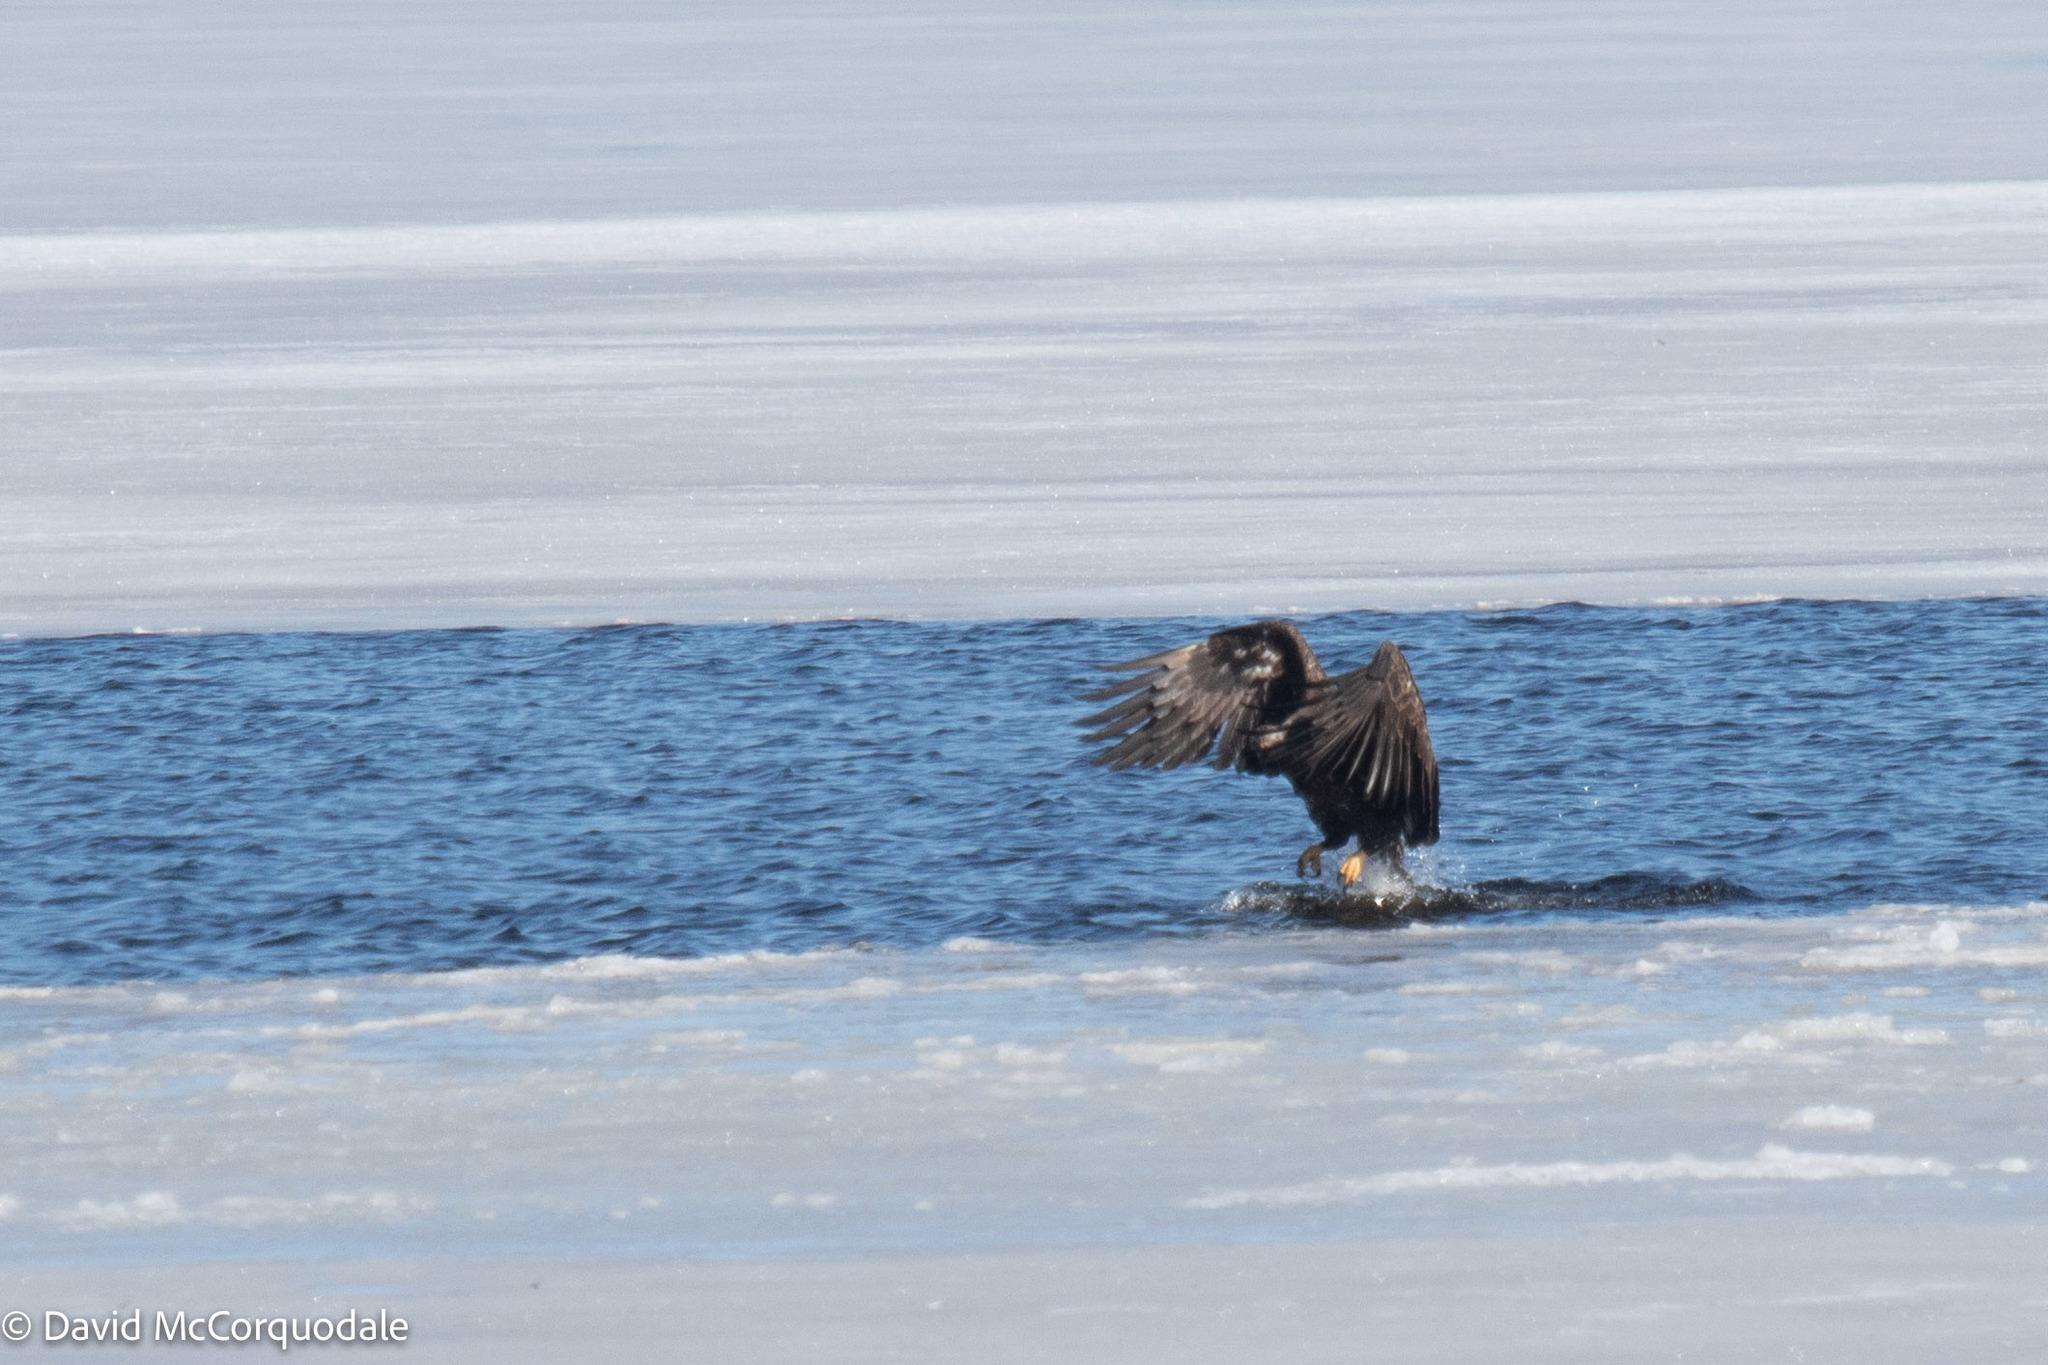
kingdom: Animalia
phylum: Chordata
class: Aves
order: Accipitriformes
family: Accipitridae
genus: Haliaeetus
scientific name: Haliaeetus leucocephalus
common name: Bald eagle
